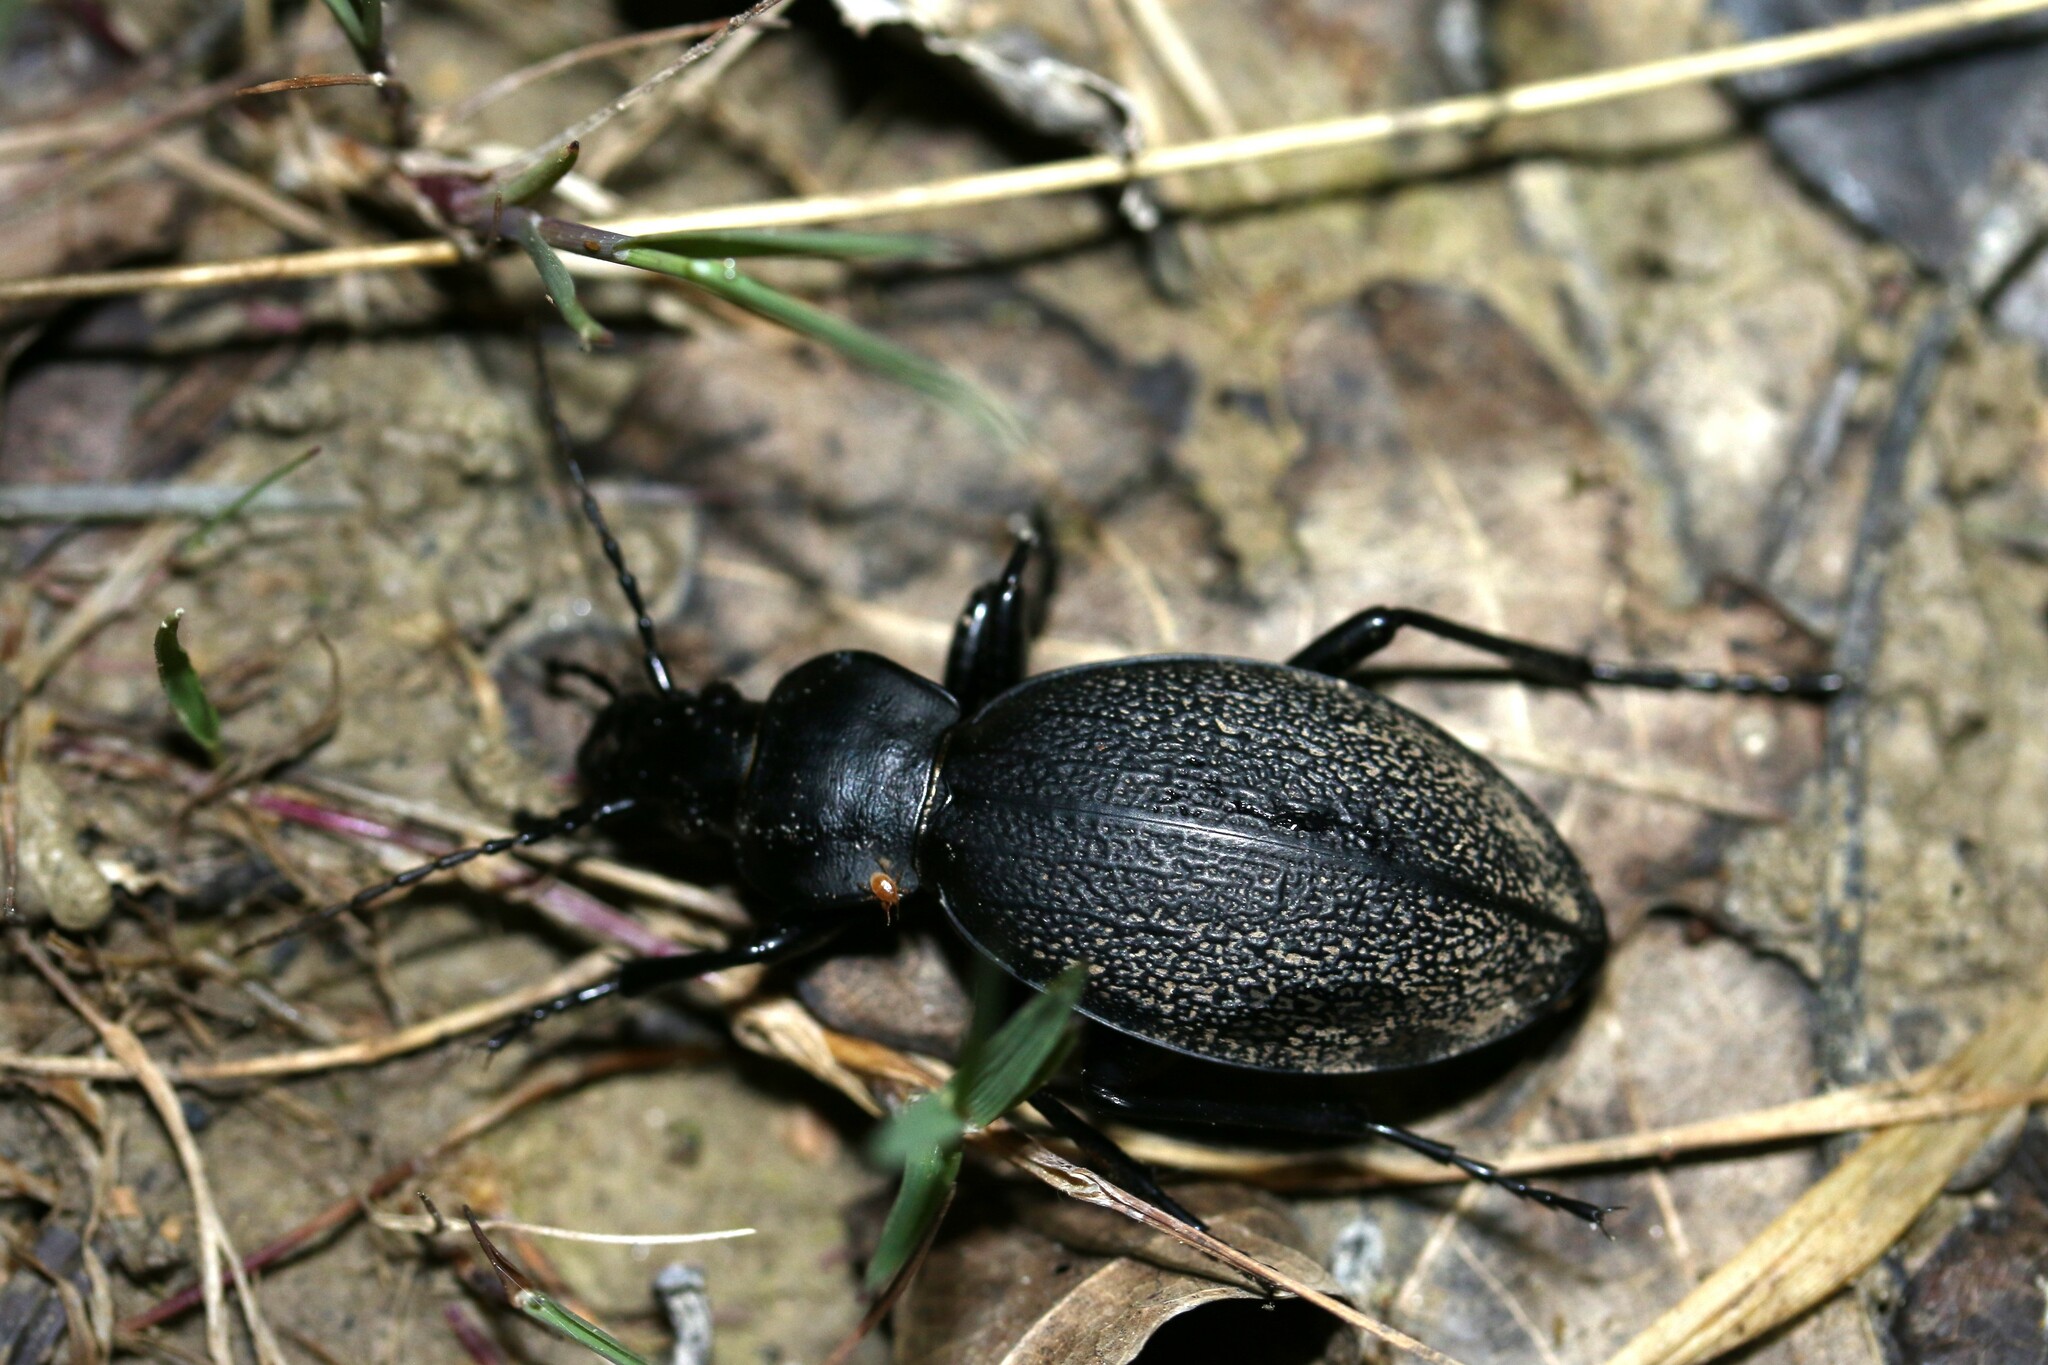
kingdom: Animalia
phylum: Arthropoda
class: Insecta
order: Coleoptera
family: Carabidae
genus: Carabus
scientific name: Carabus coriaceus
